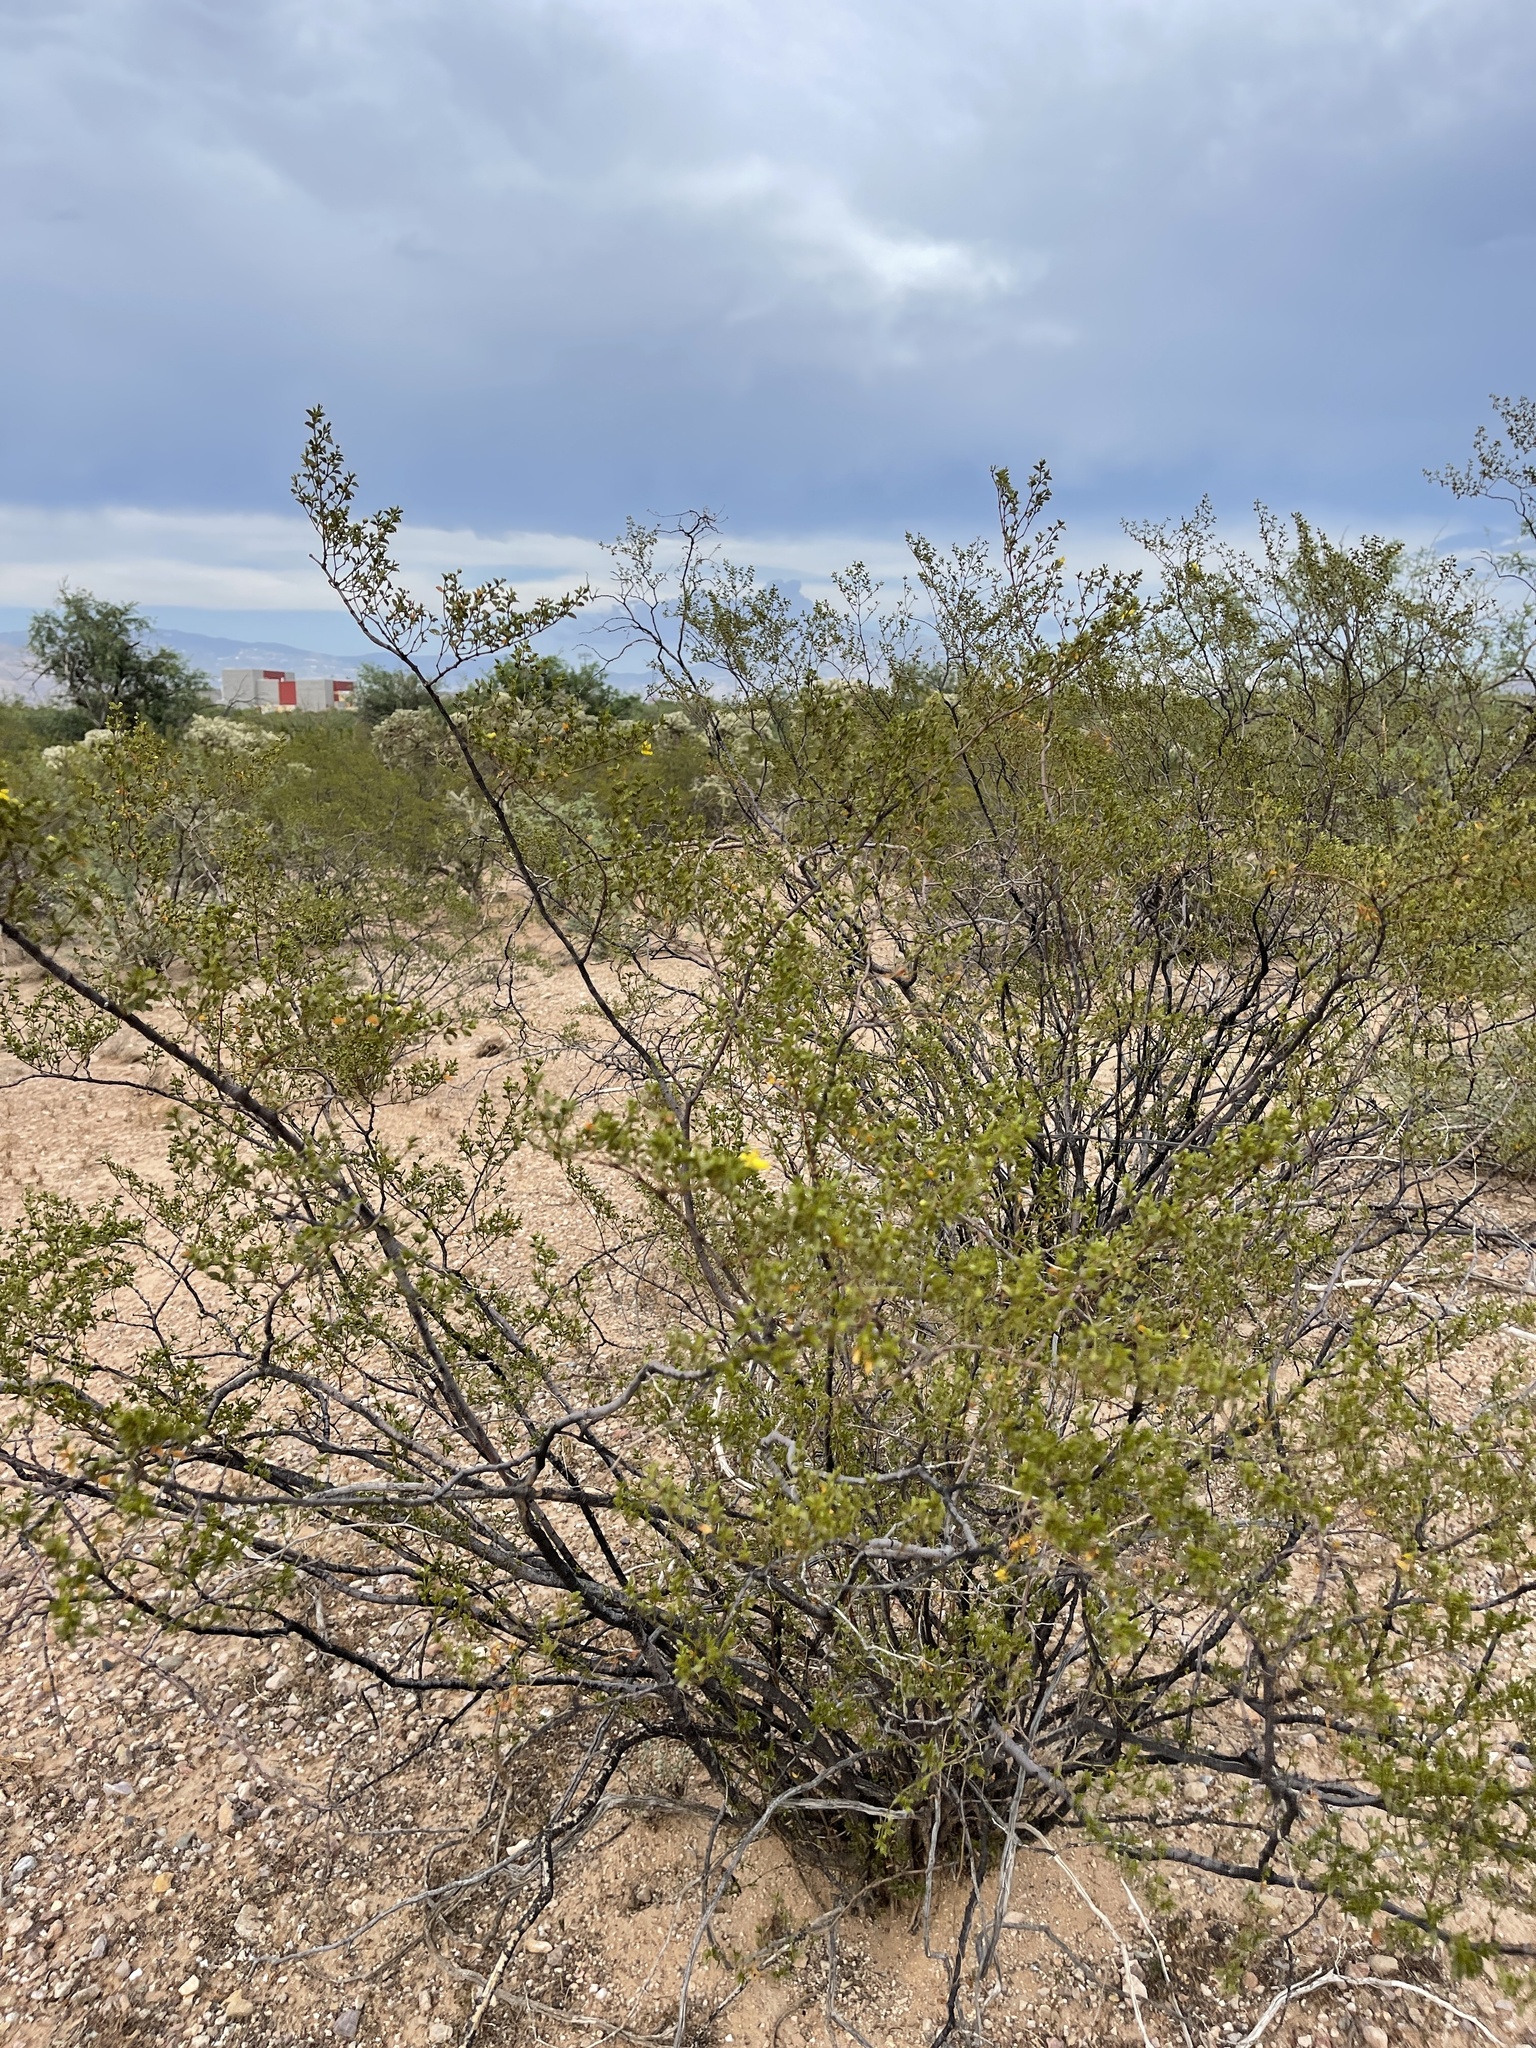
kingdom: Plantae
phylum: Tracheophyta
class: Magnoliopsida
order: Zygophyllales
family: Zygophyllaceae
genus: Larrea
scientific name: Larrea tridentata
